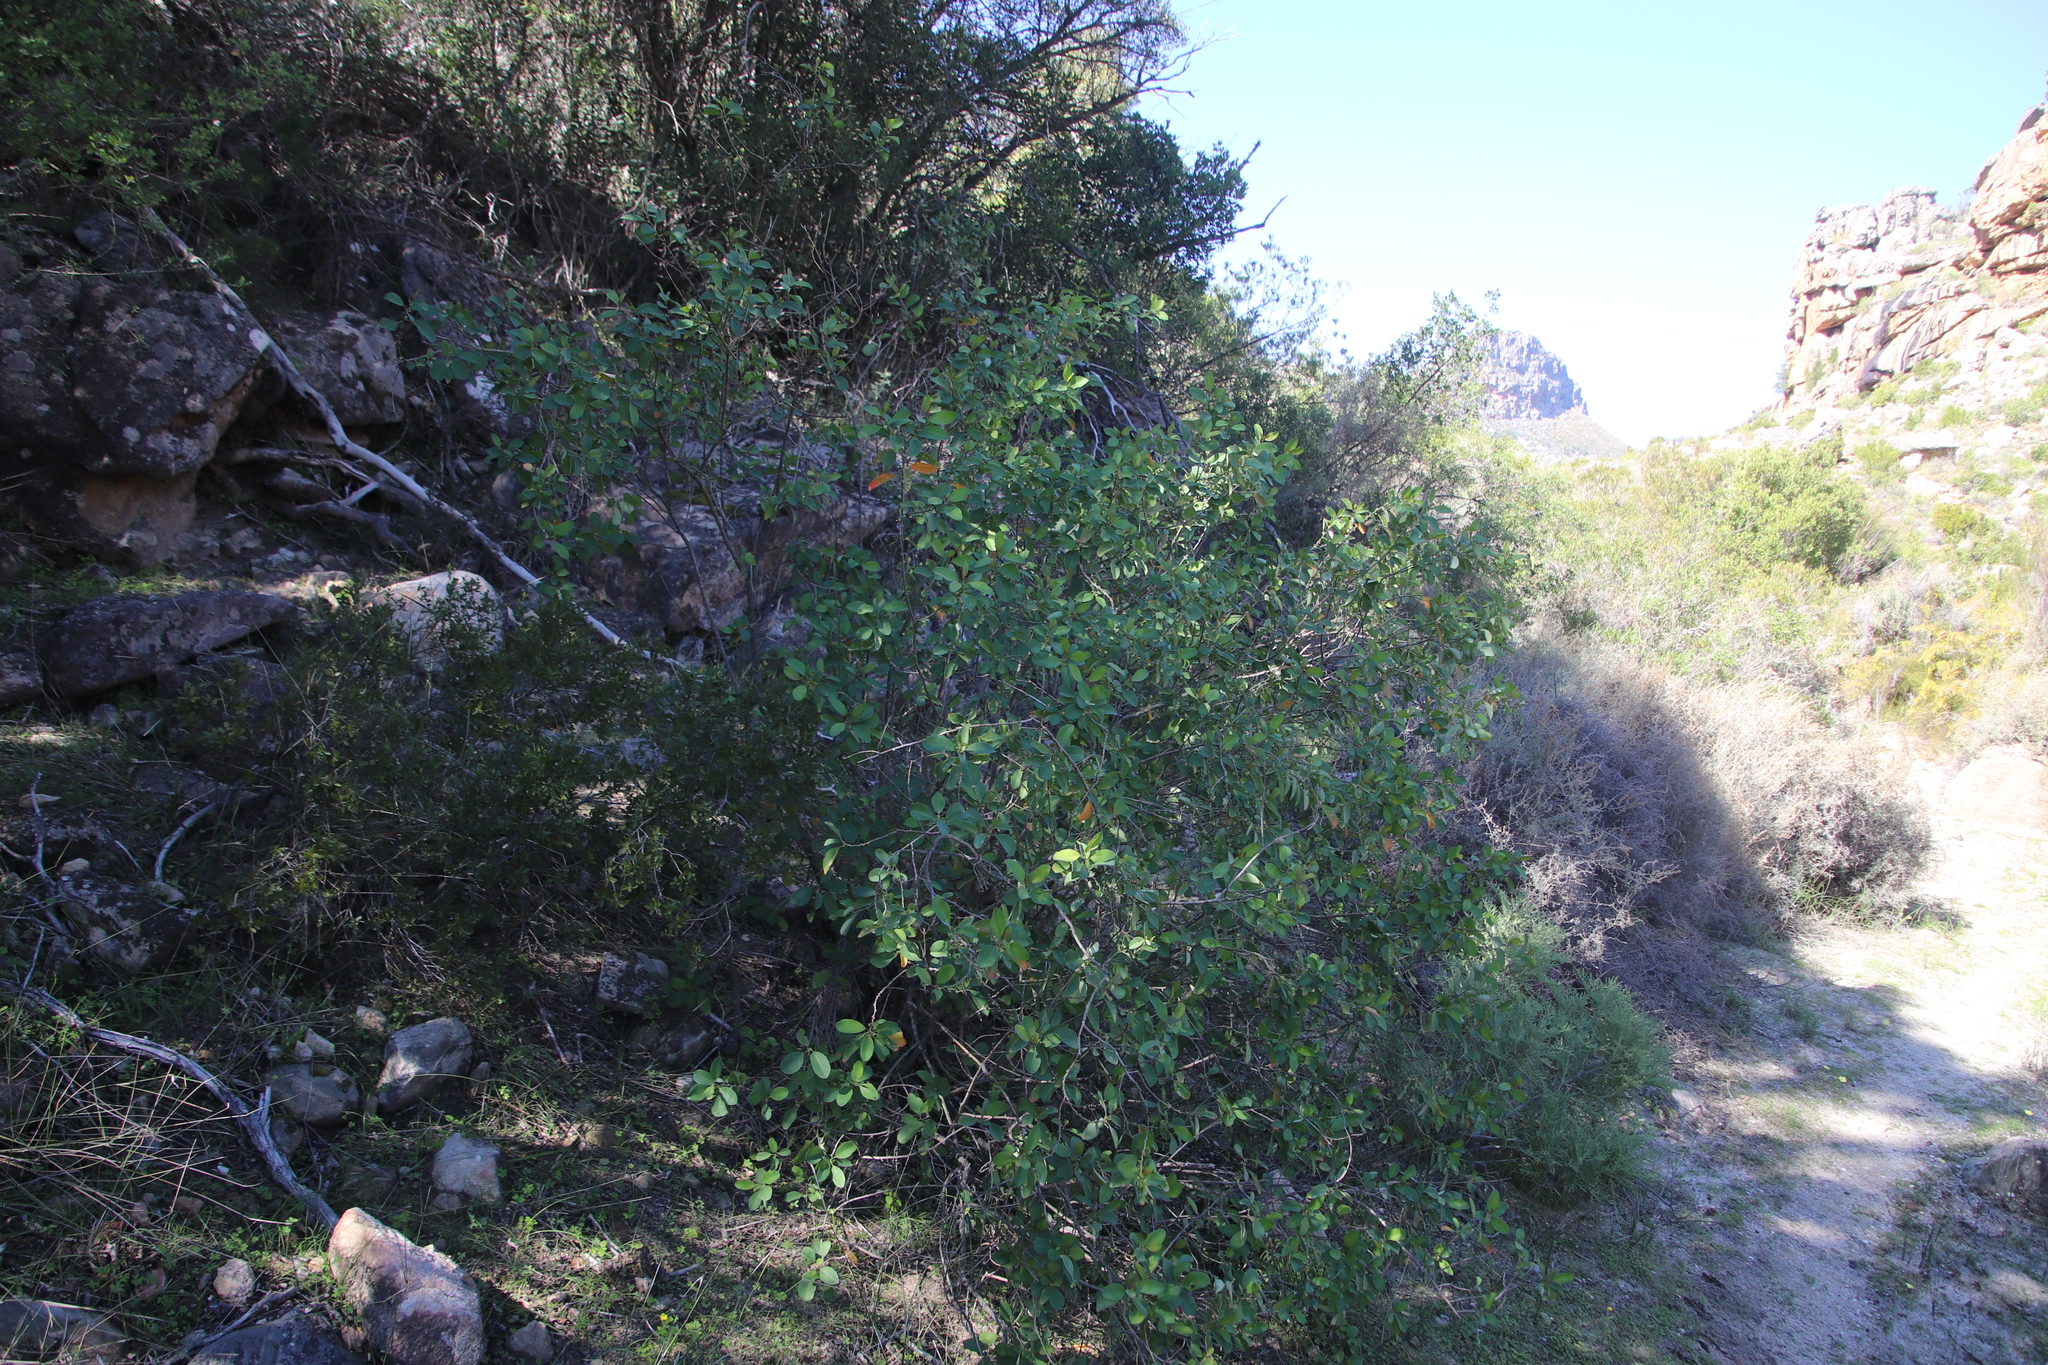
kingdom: Plantae
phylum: Tracheophyta
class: Magnoliopsida
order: Malpighiales
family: Peraceae
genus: Clutia
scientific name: Clutia pulchella
